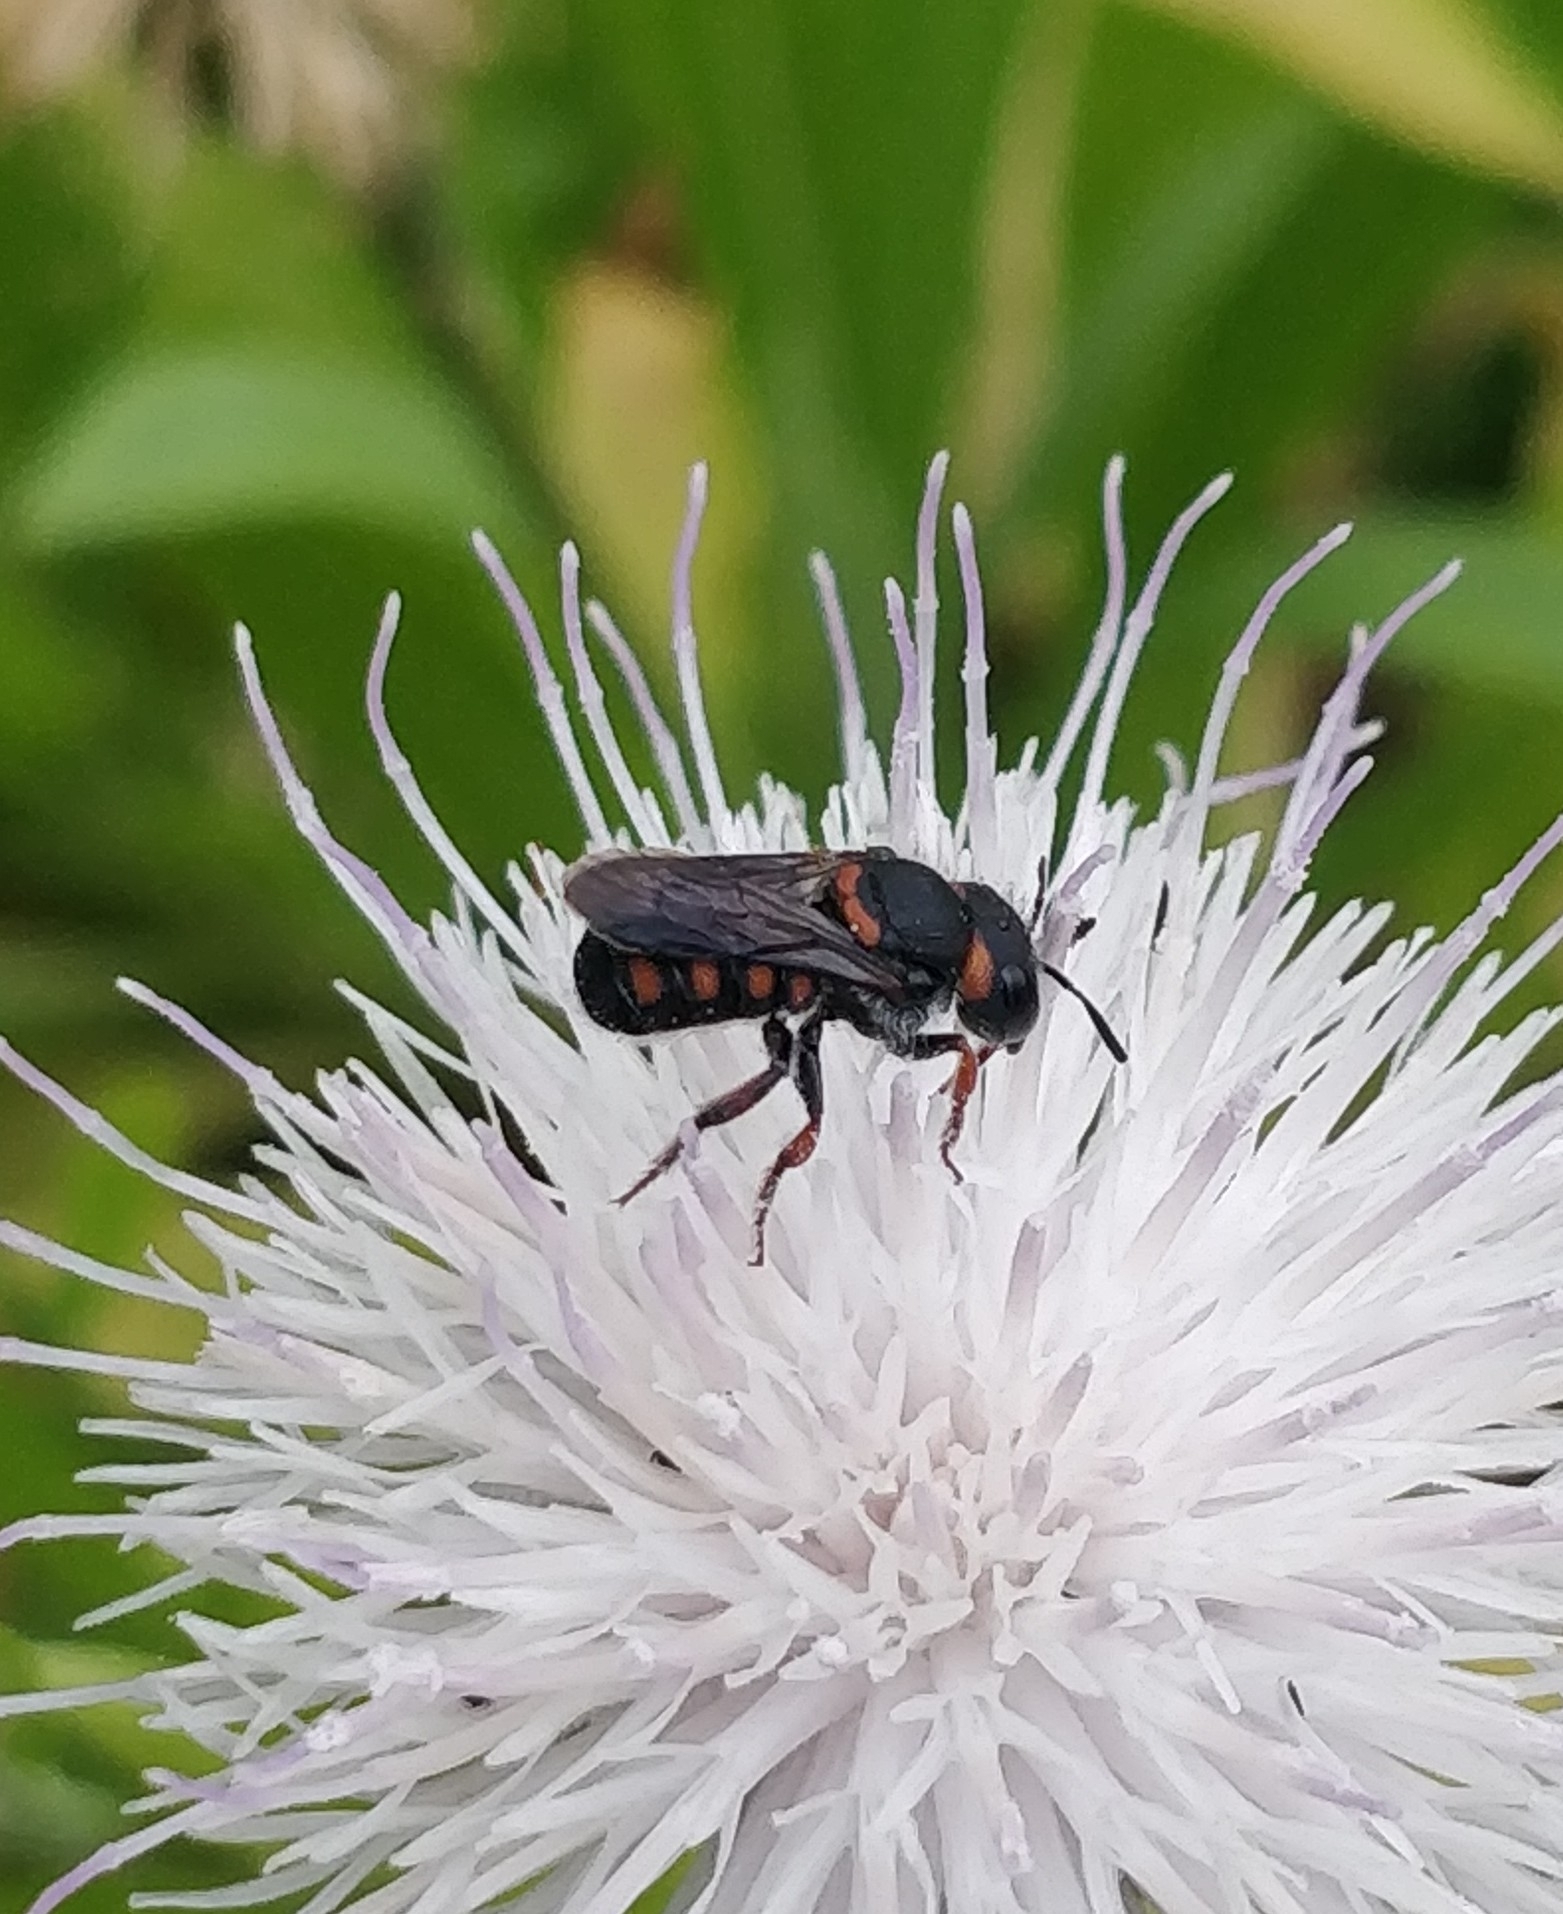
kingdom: Animalia
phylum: Arthropoda
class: Insecta
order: Hymenoptera
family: Megachilidae
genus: Pseudoanthidium
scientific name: Pseudoanthidium canariense
